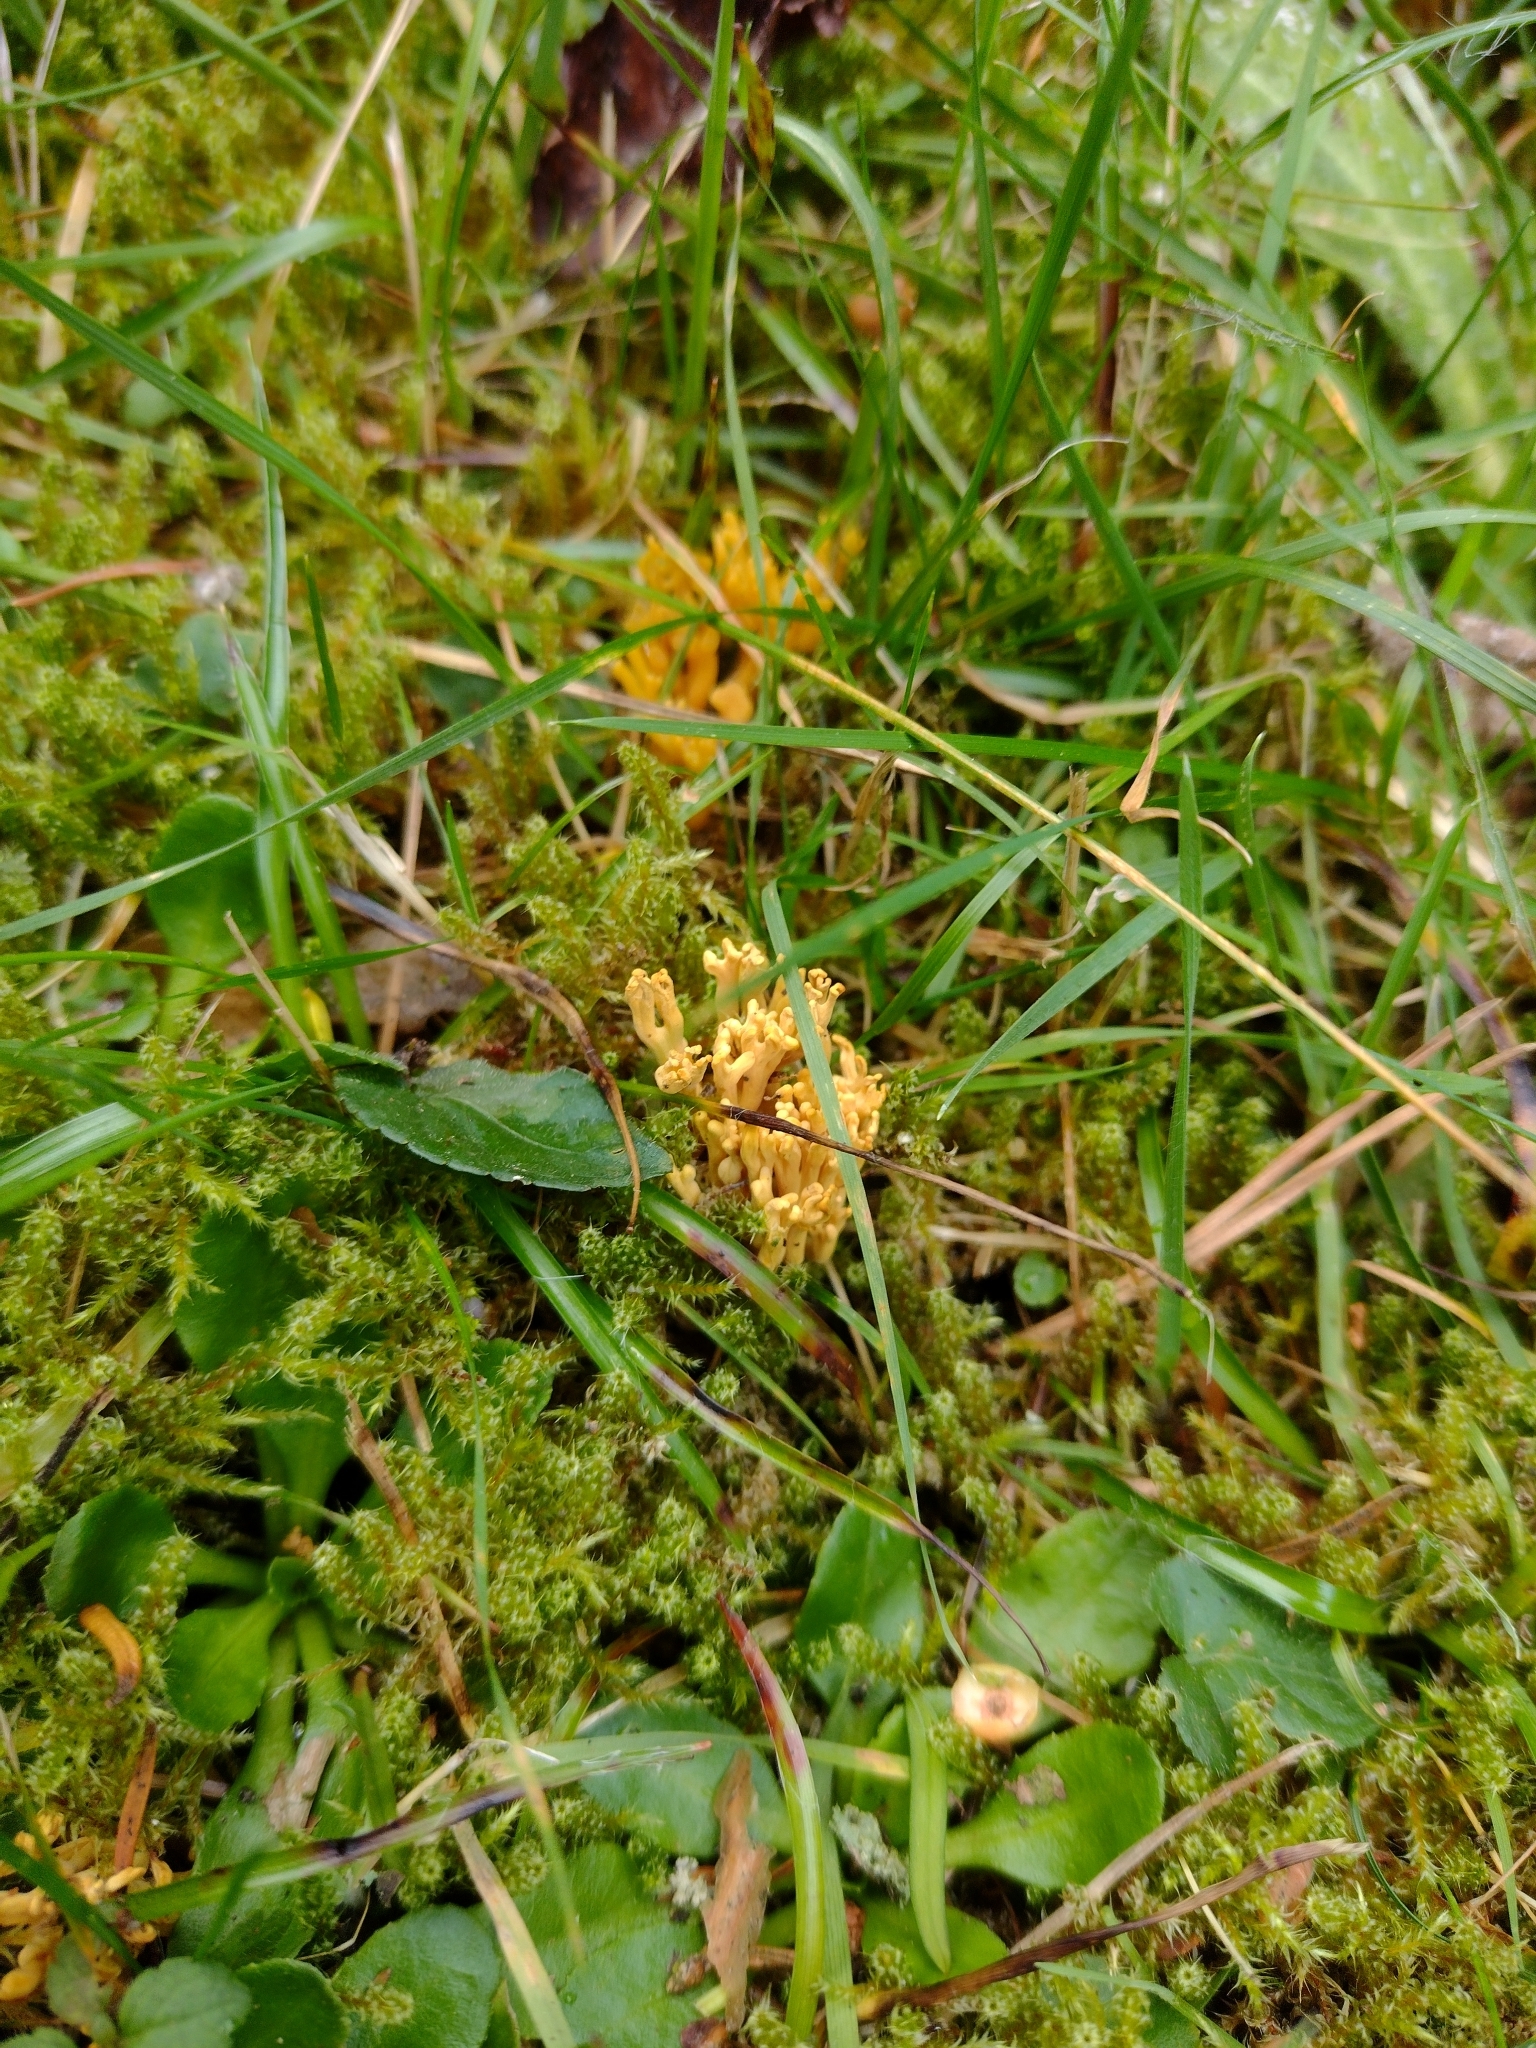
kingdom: Fungi
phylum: Basidiomycota
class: Agaricomycetes
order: Agaricales
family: Clavariaceae
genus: Clavulinopsis
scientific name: Clavulinopsis corniculata
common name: Meadow coral
